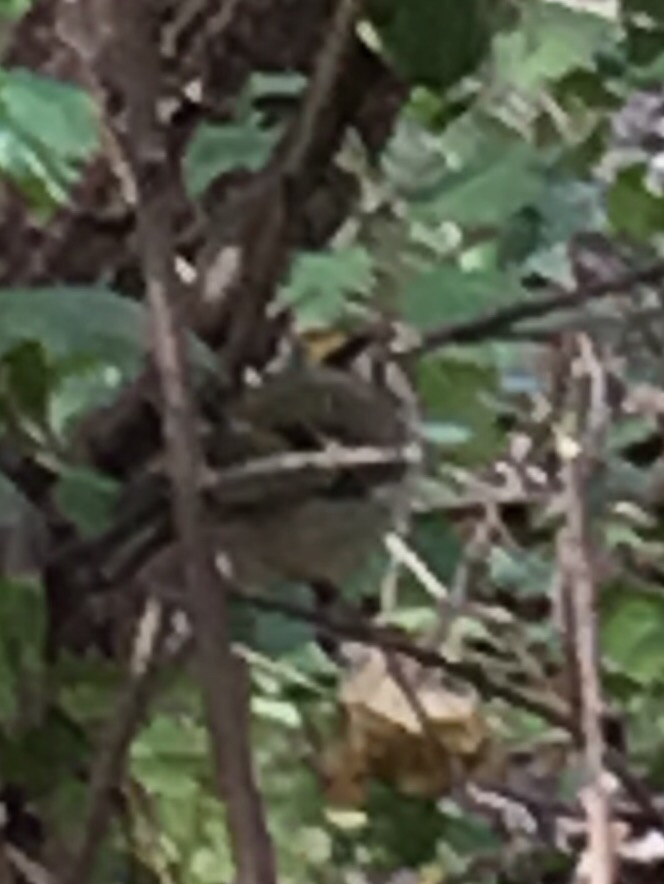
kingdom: Animalia
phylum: Chordata
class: Aves
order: Passeriformes
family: Regulidae
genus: Regulus
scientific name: Regulus satrapa
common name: Golden-crowned kinglet
